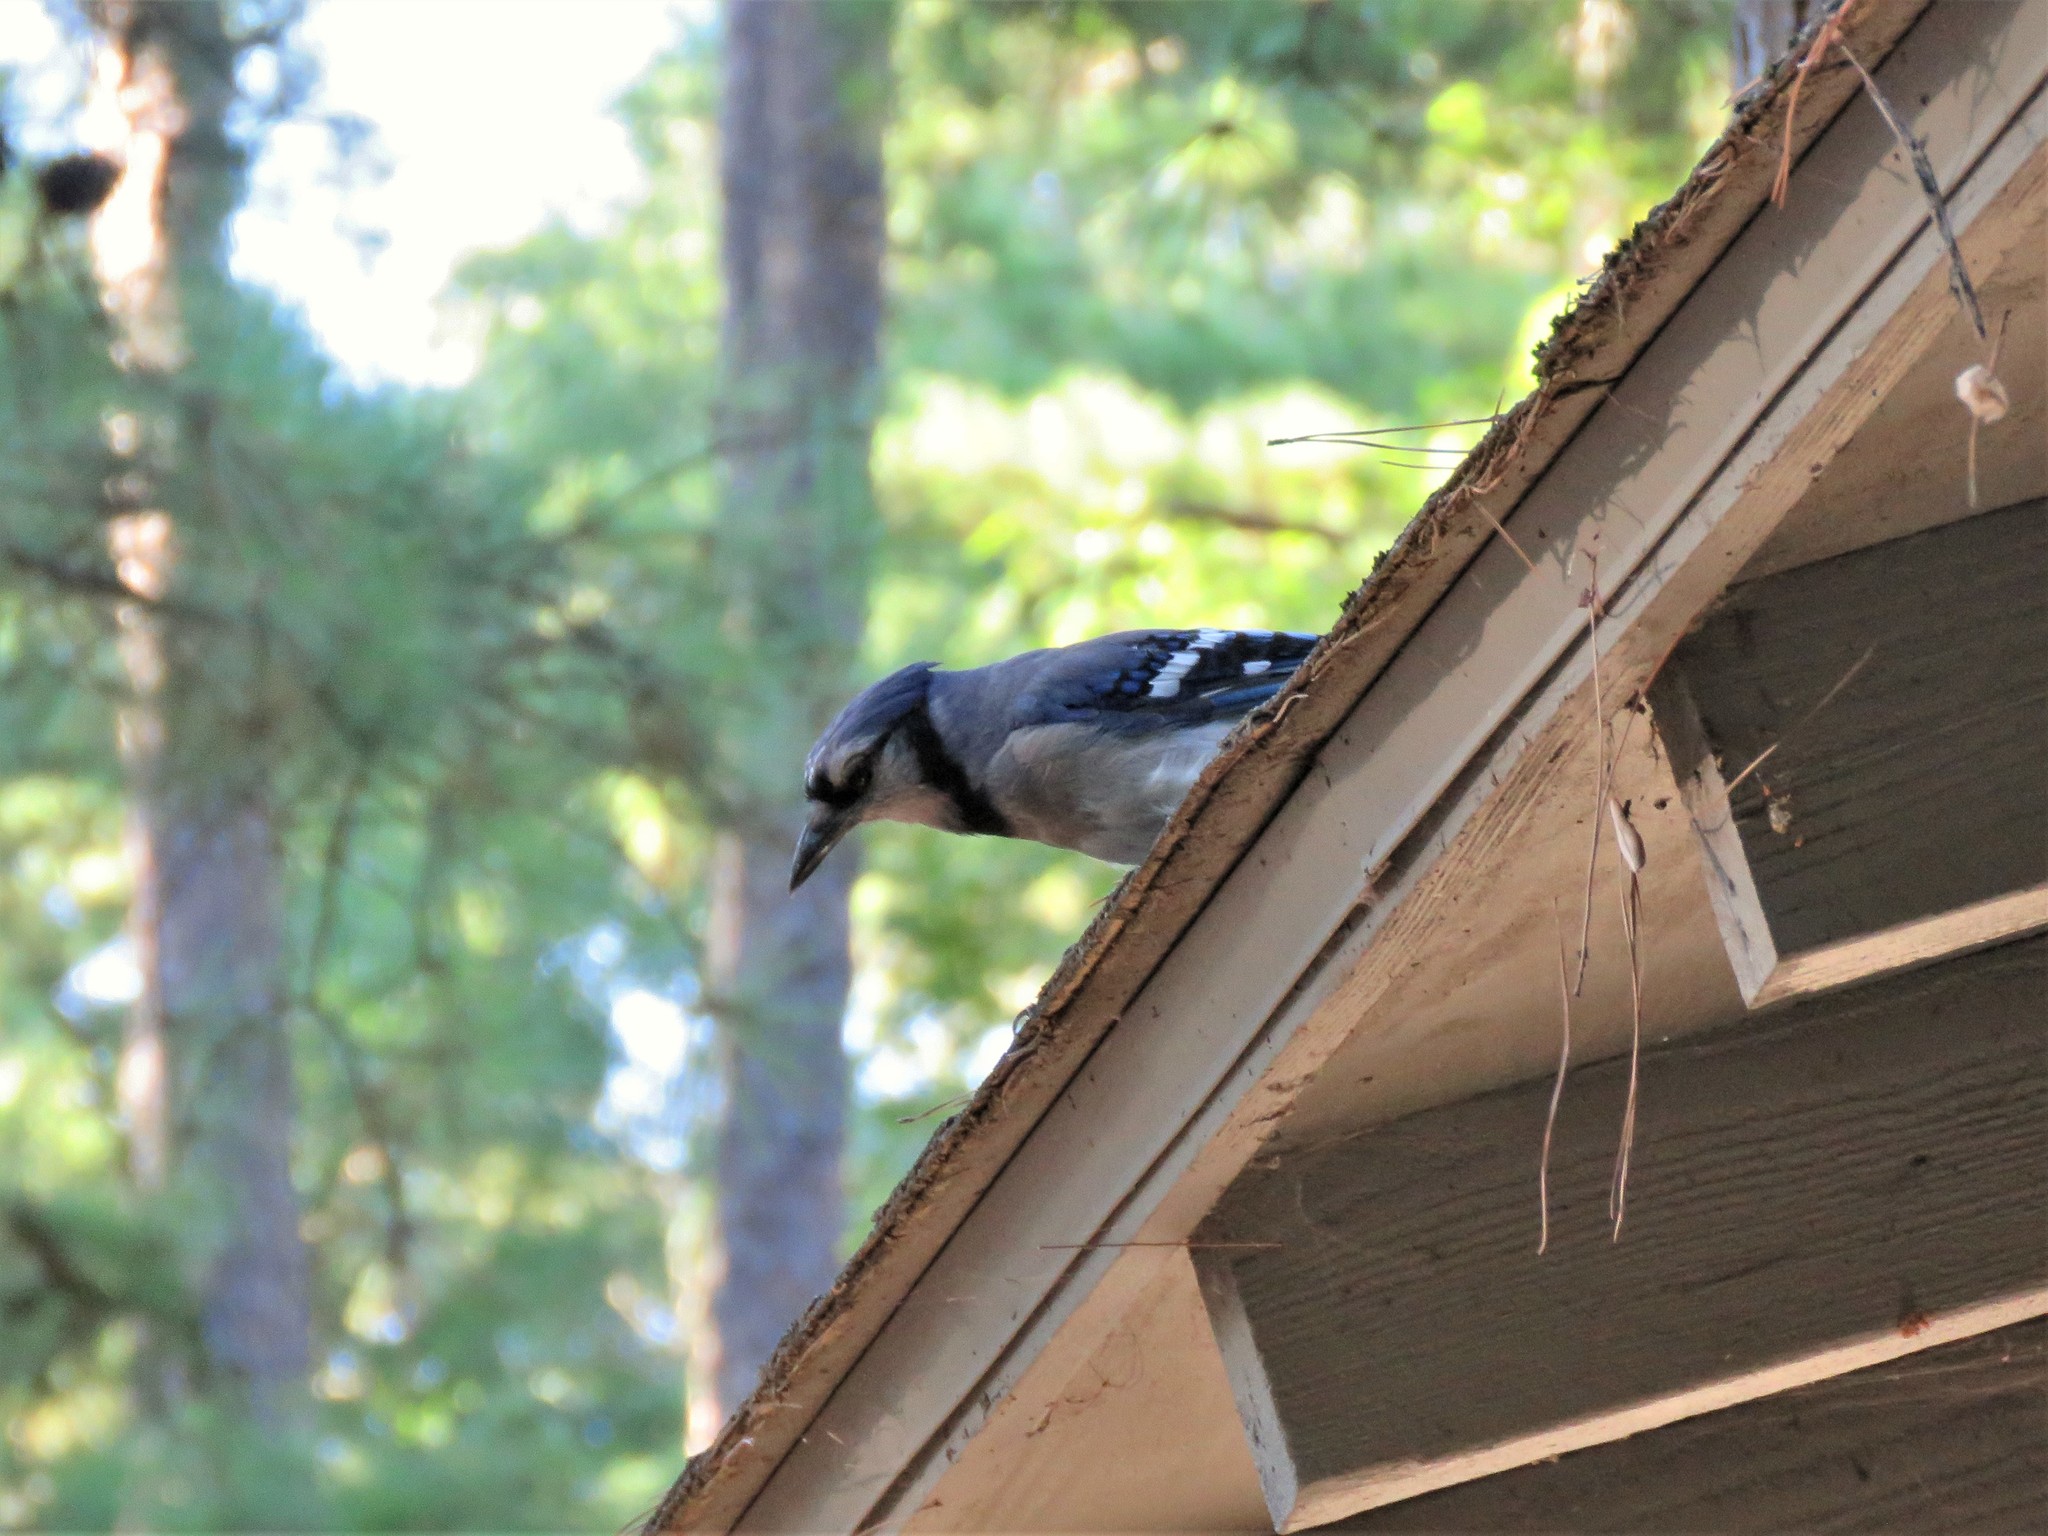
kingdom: Animalia
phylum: Chordata
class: Aves
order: Passeriformes
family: Corvidae
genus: Cyanocitta
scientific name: Cyanocitta cristata
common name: Blue jay
